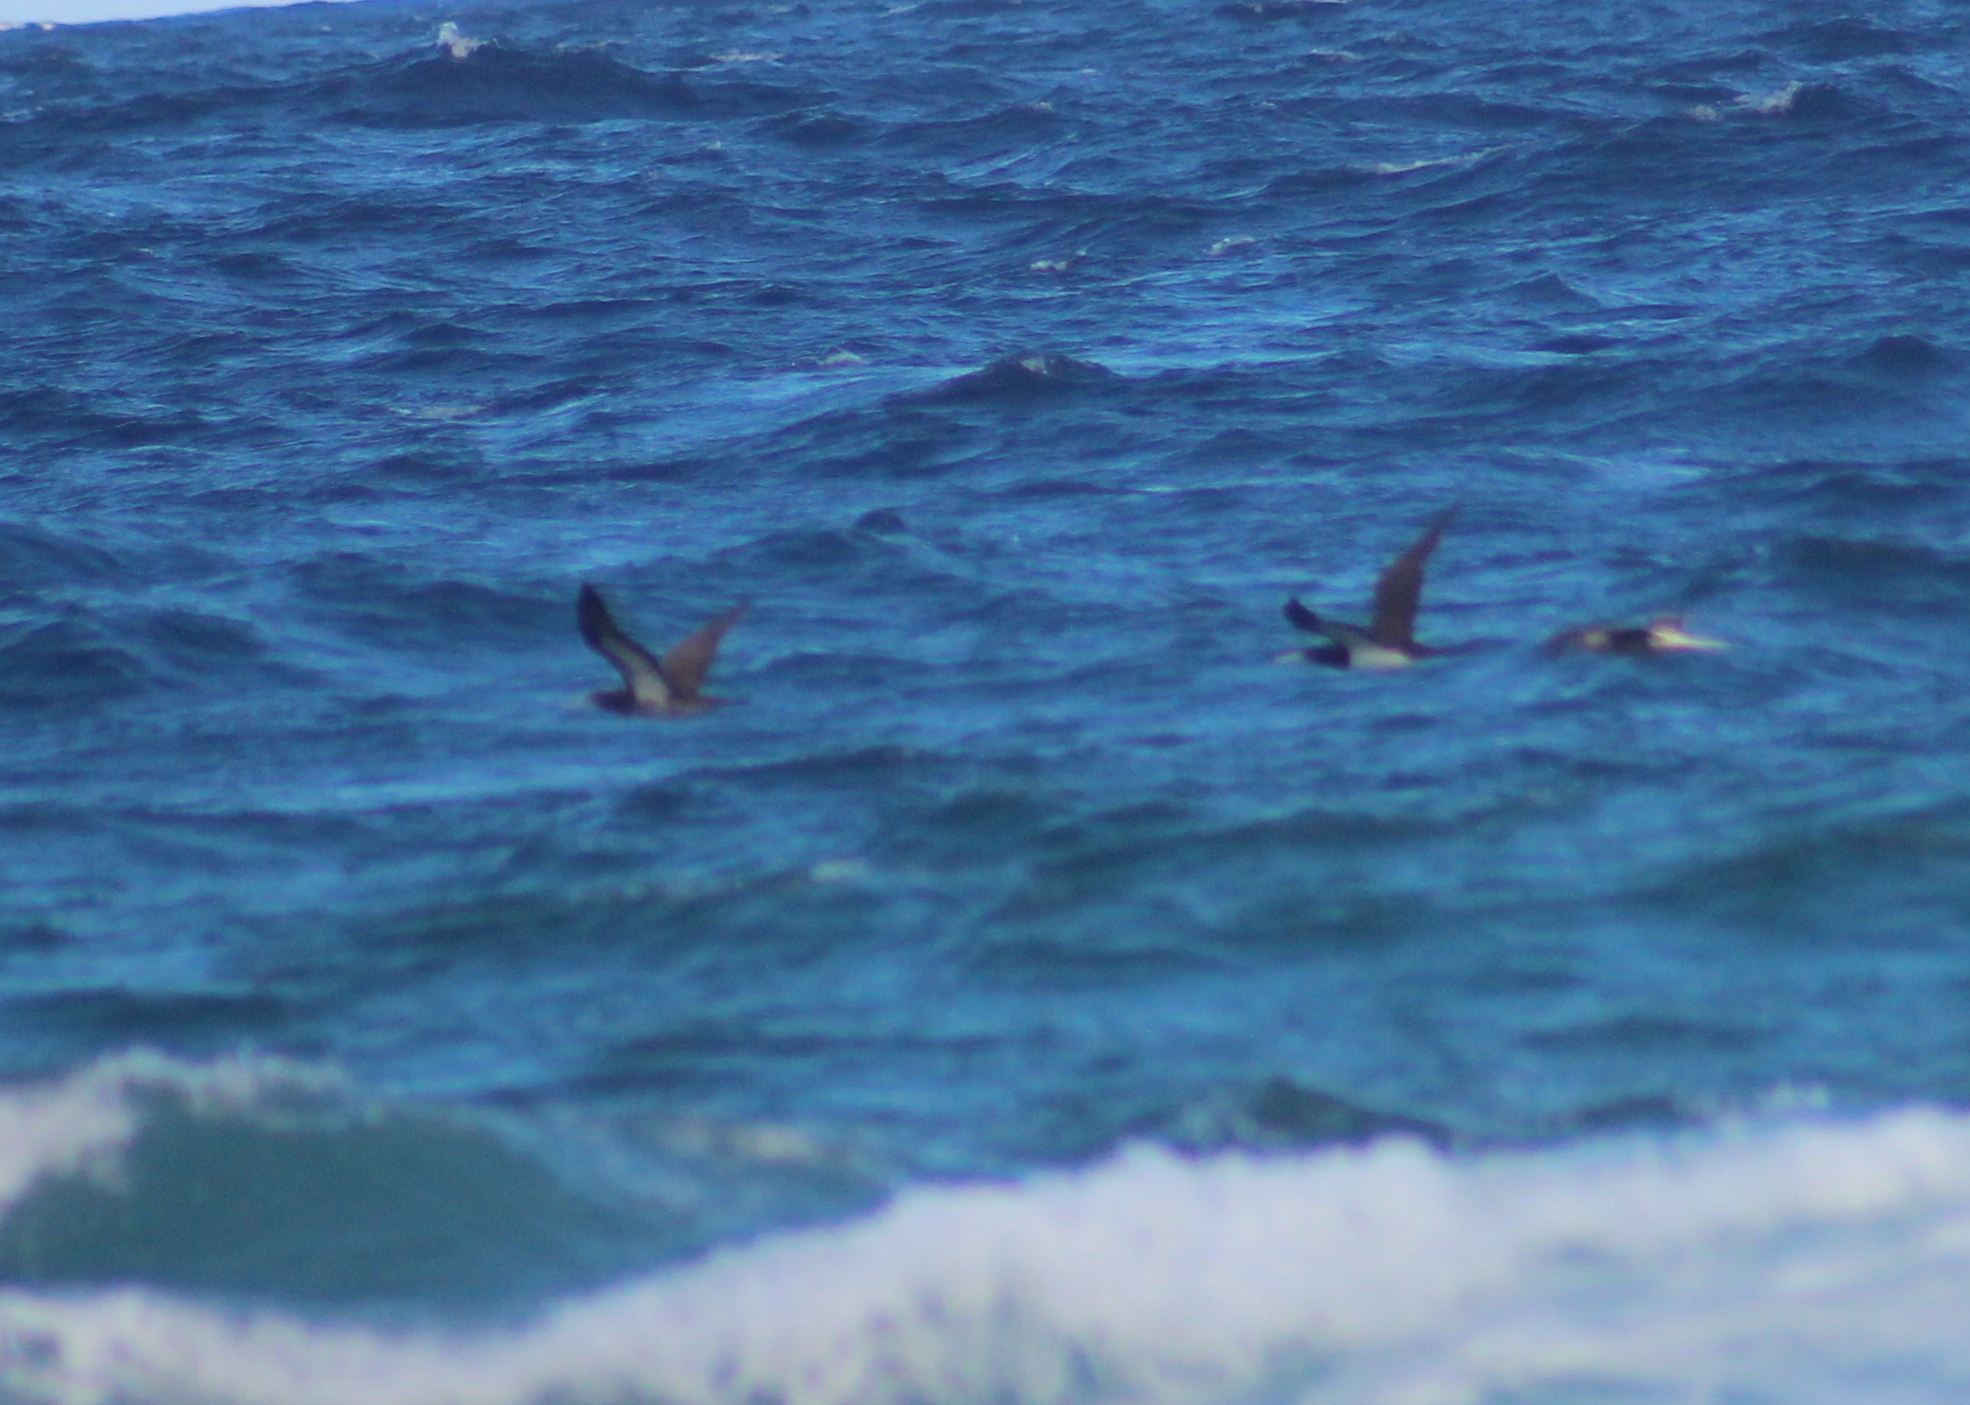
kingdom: Animalia
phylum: Chordata
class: Aves
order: Suliformes
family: Sulidae
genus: Sula
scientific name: Sula leucogaster
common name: Brown booby
